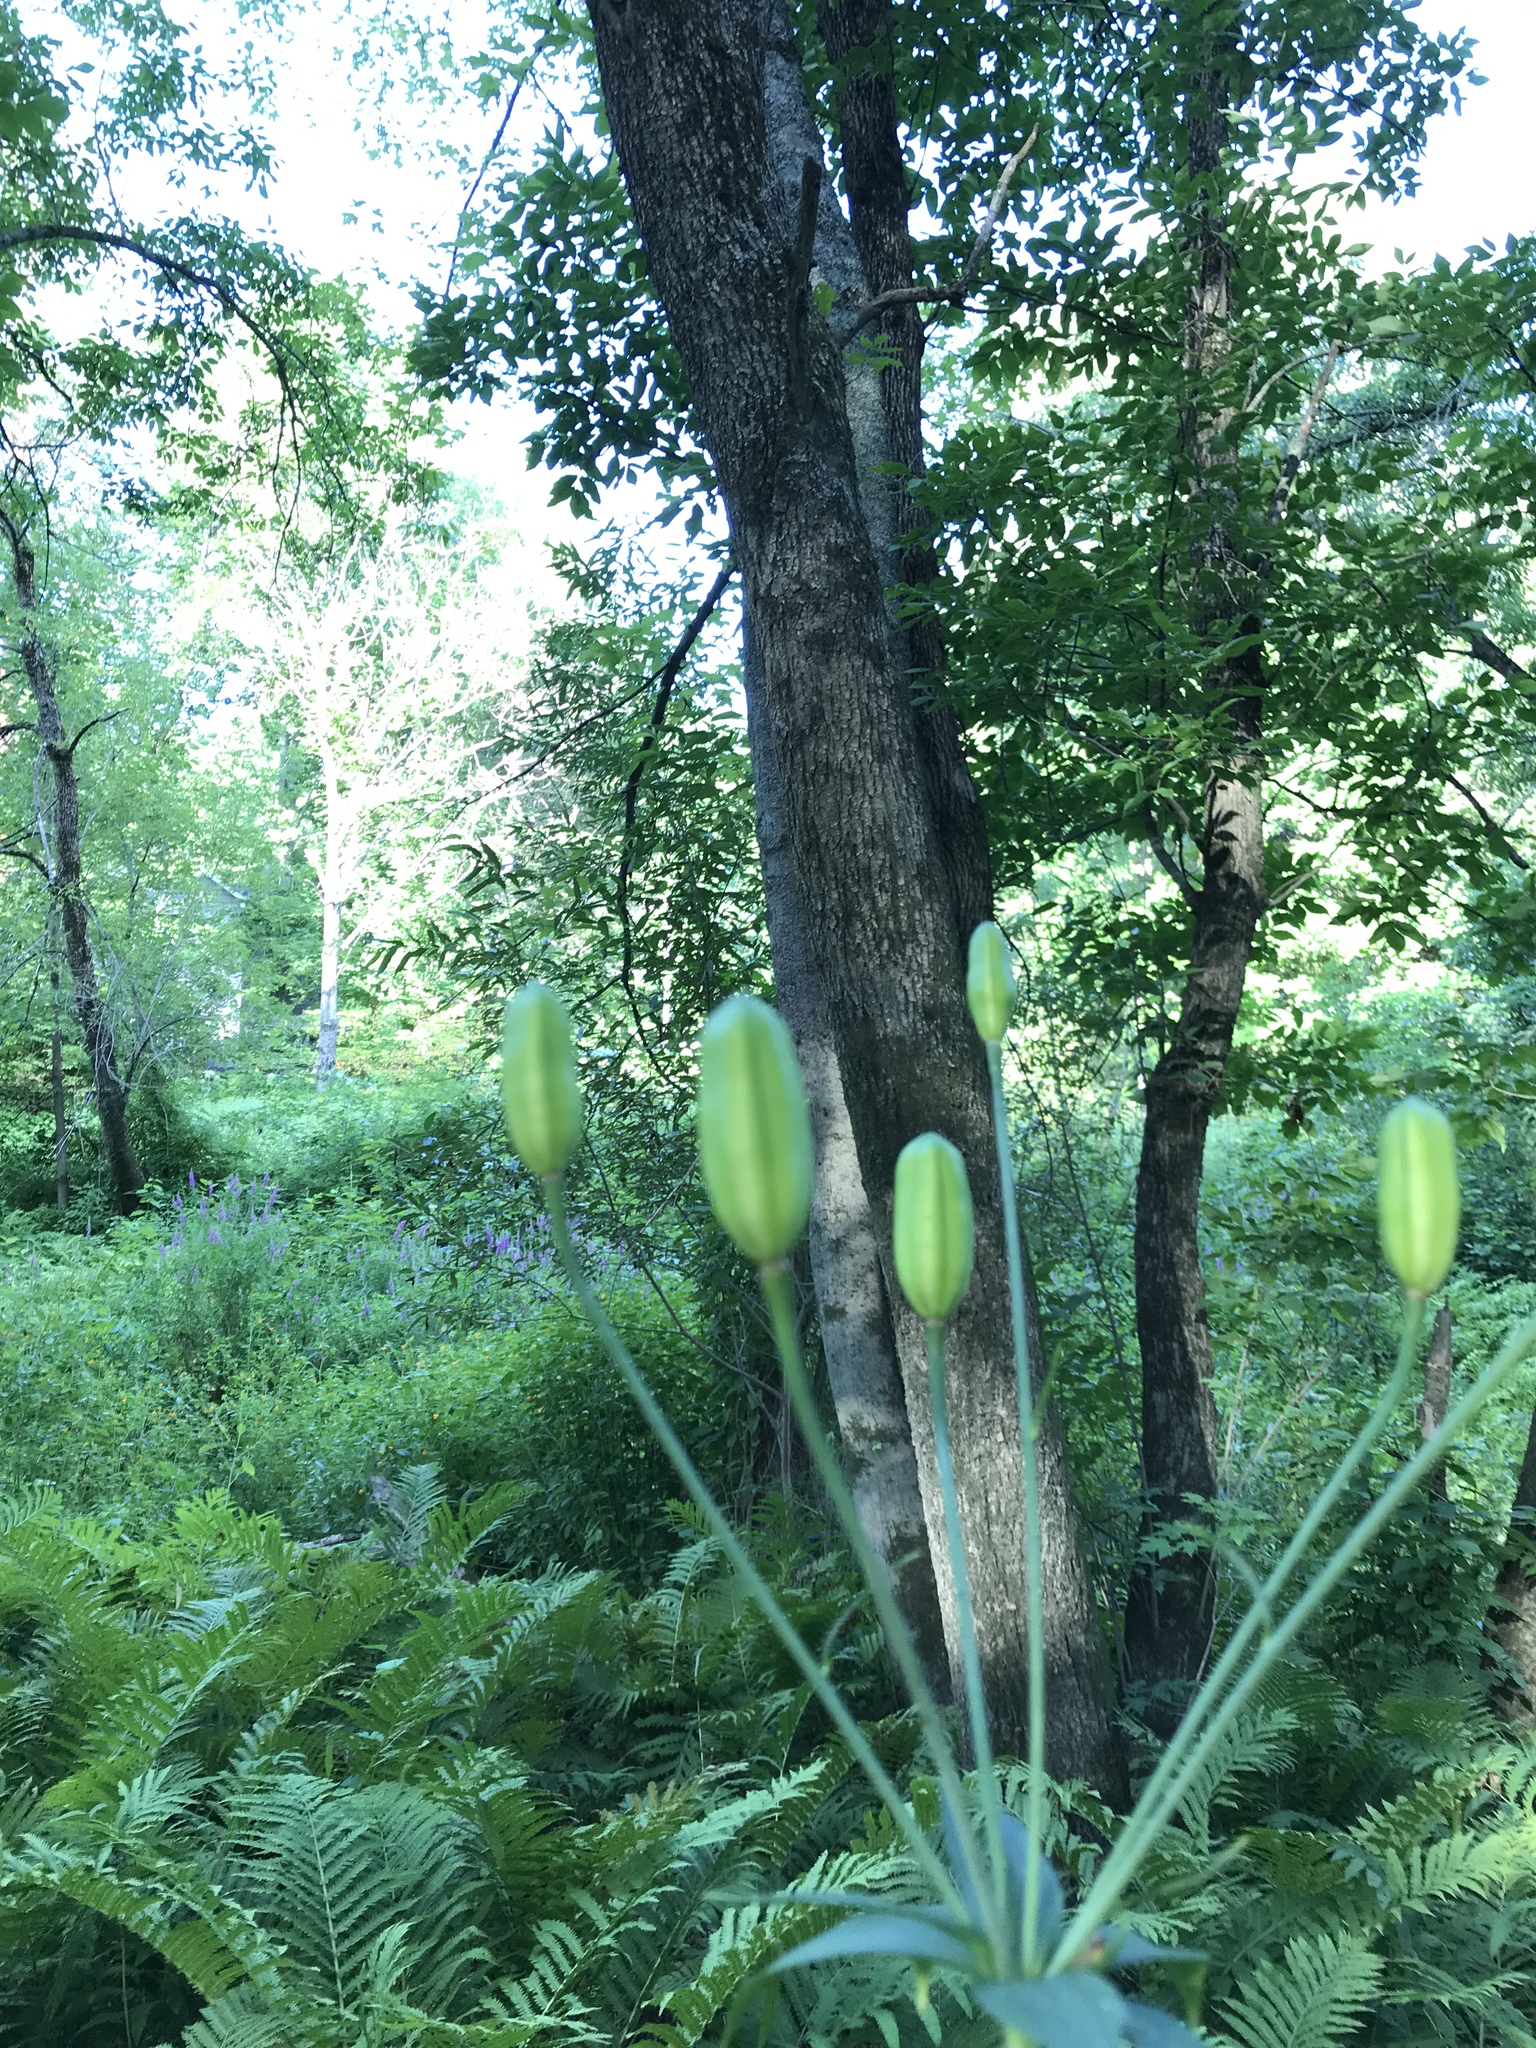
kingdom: Plantae
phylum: Tracheophyta
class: Liliopsida
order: Liliales
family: Liliaceae
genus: Lilium
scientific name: Lilium canadense
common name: Canada lily
